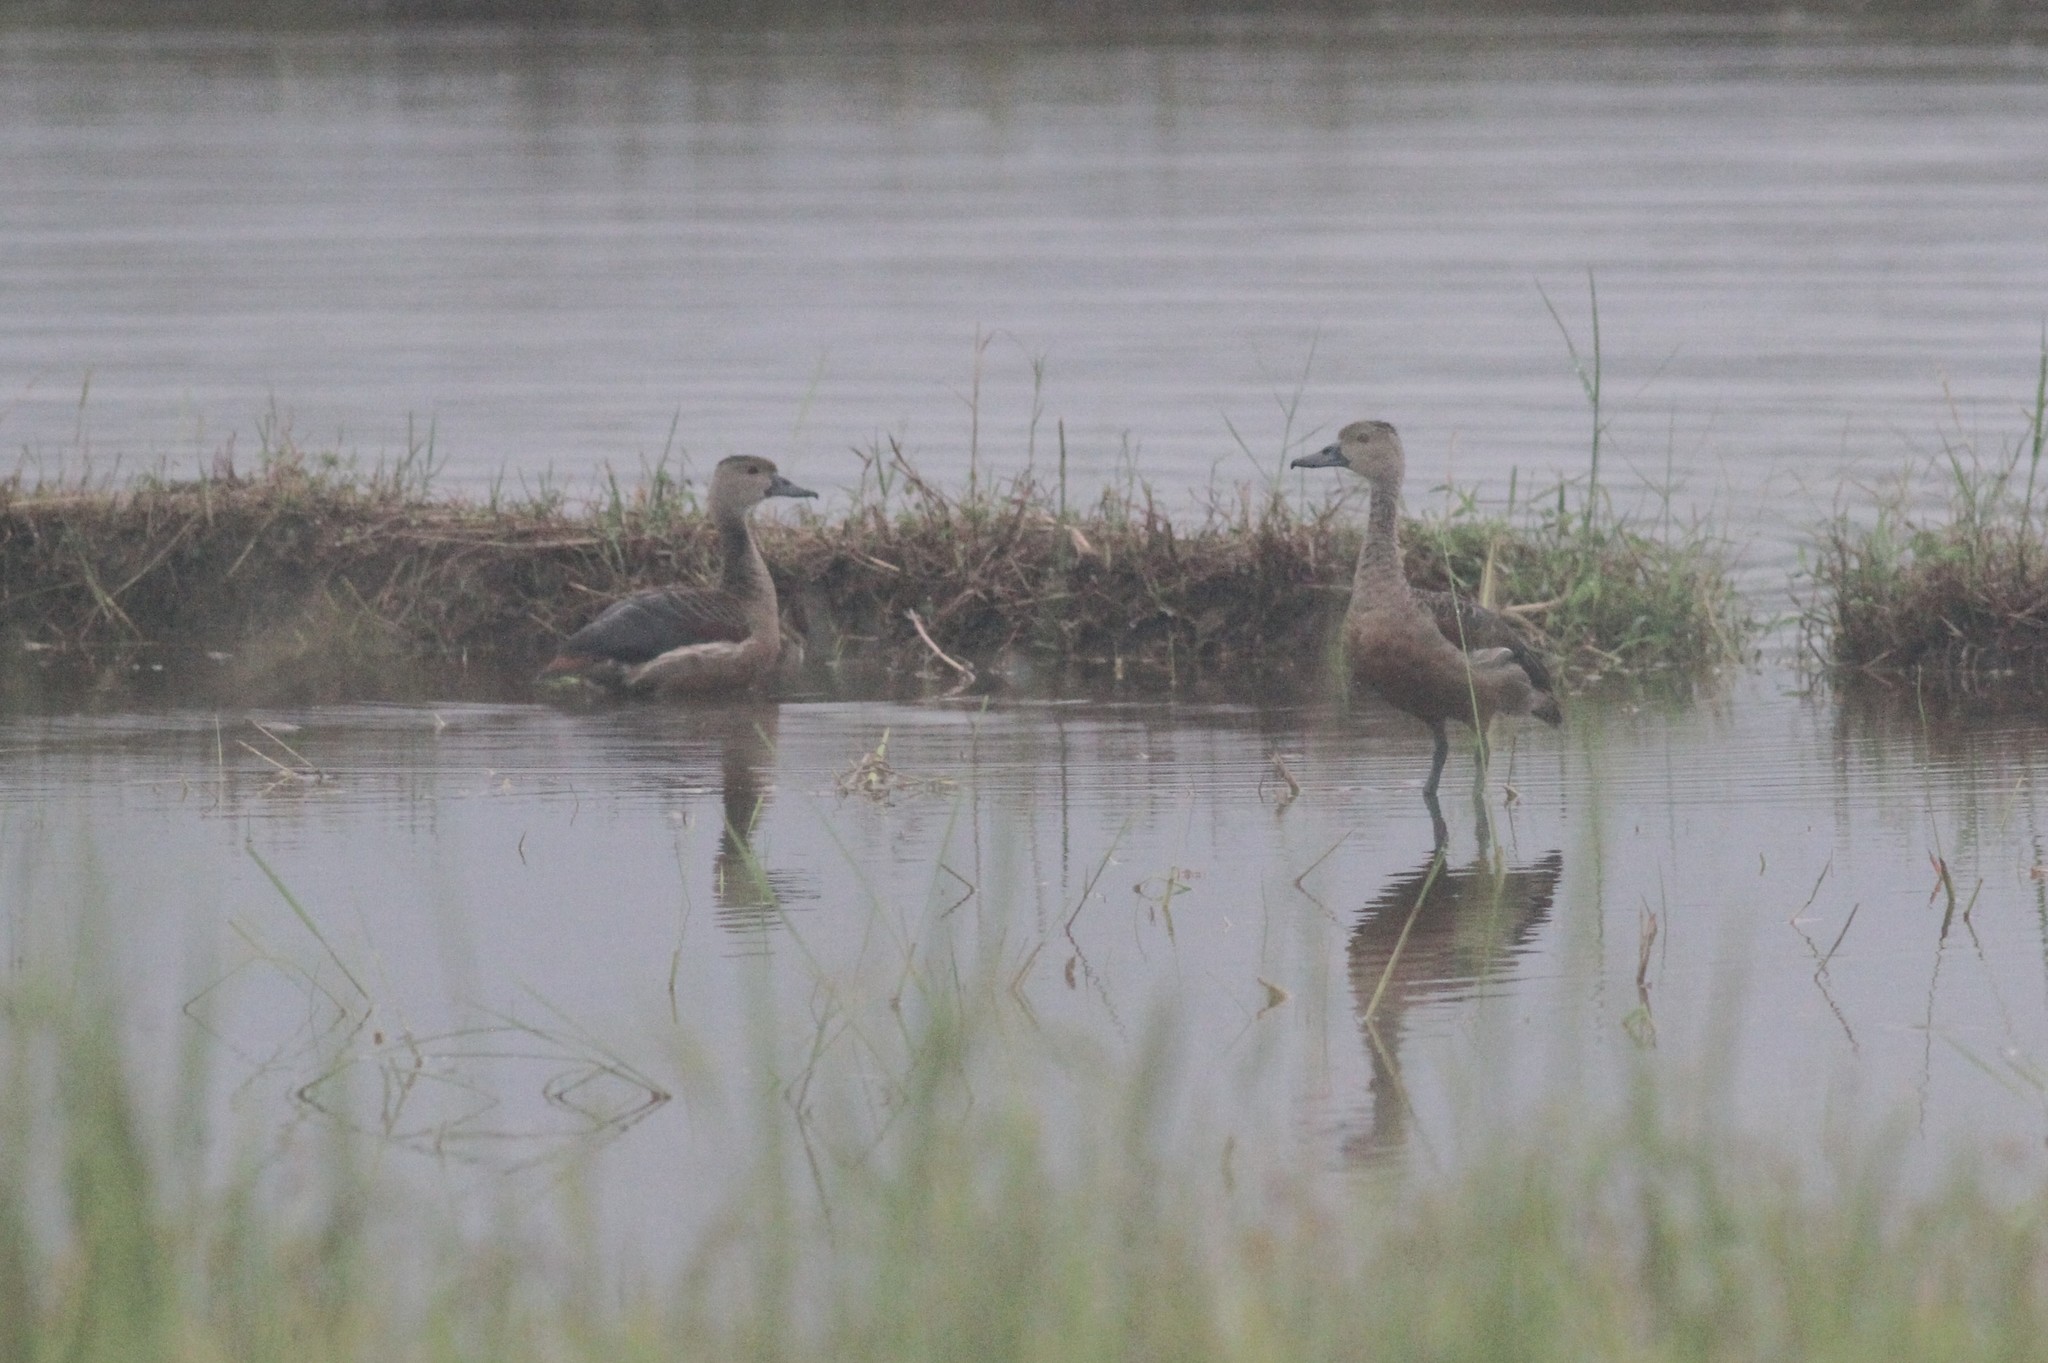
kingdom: Animalia
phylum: Chordata
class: Aves
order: Anseriformes
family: Anatidae
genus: Dendrocygna
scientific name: Dendrocygna javanica
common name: Lesser whistling-duck
